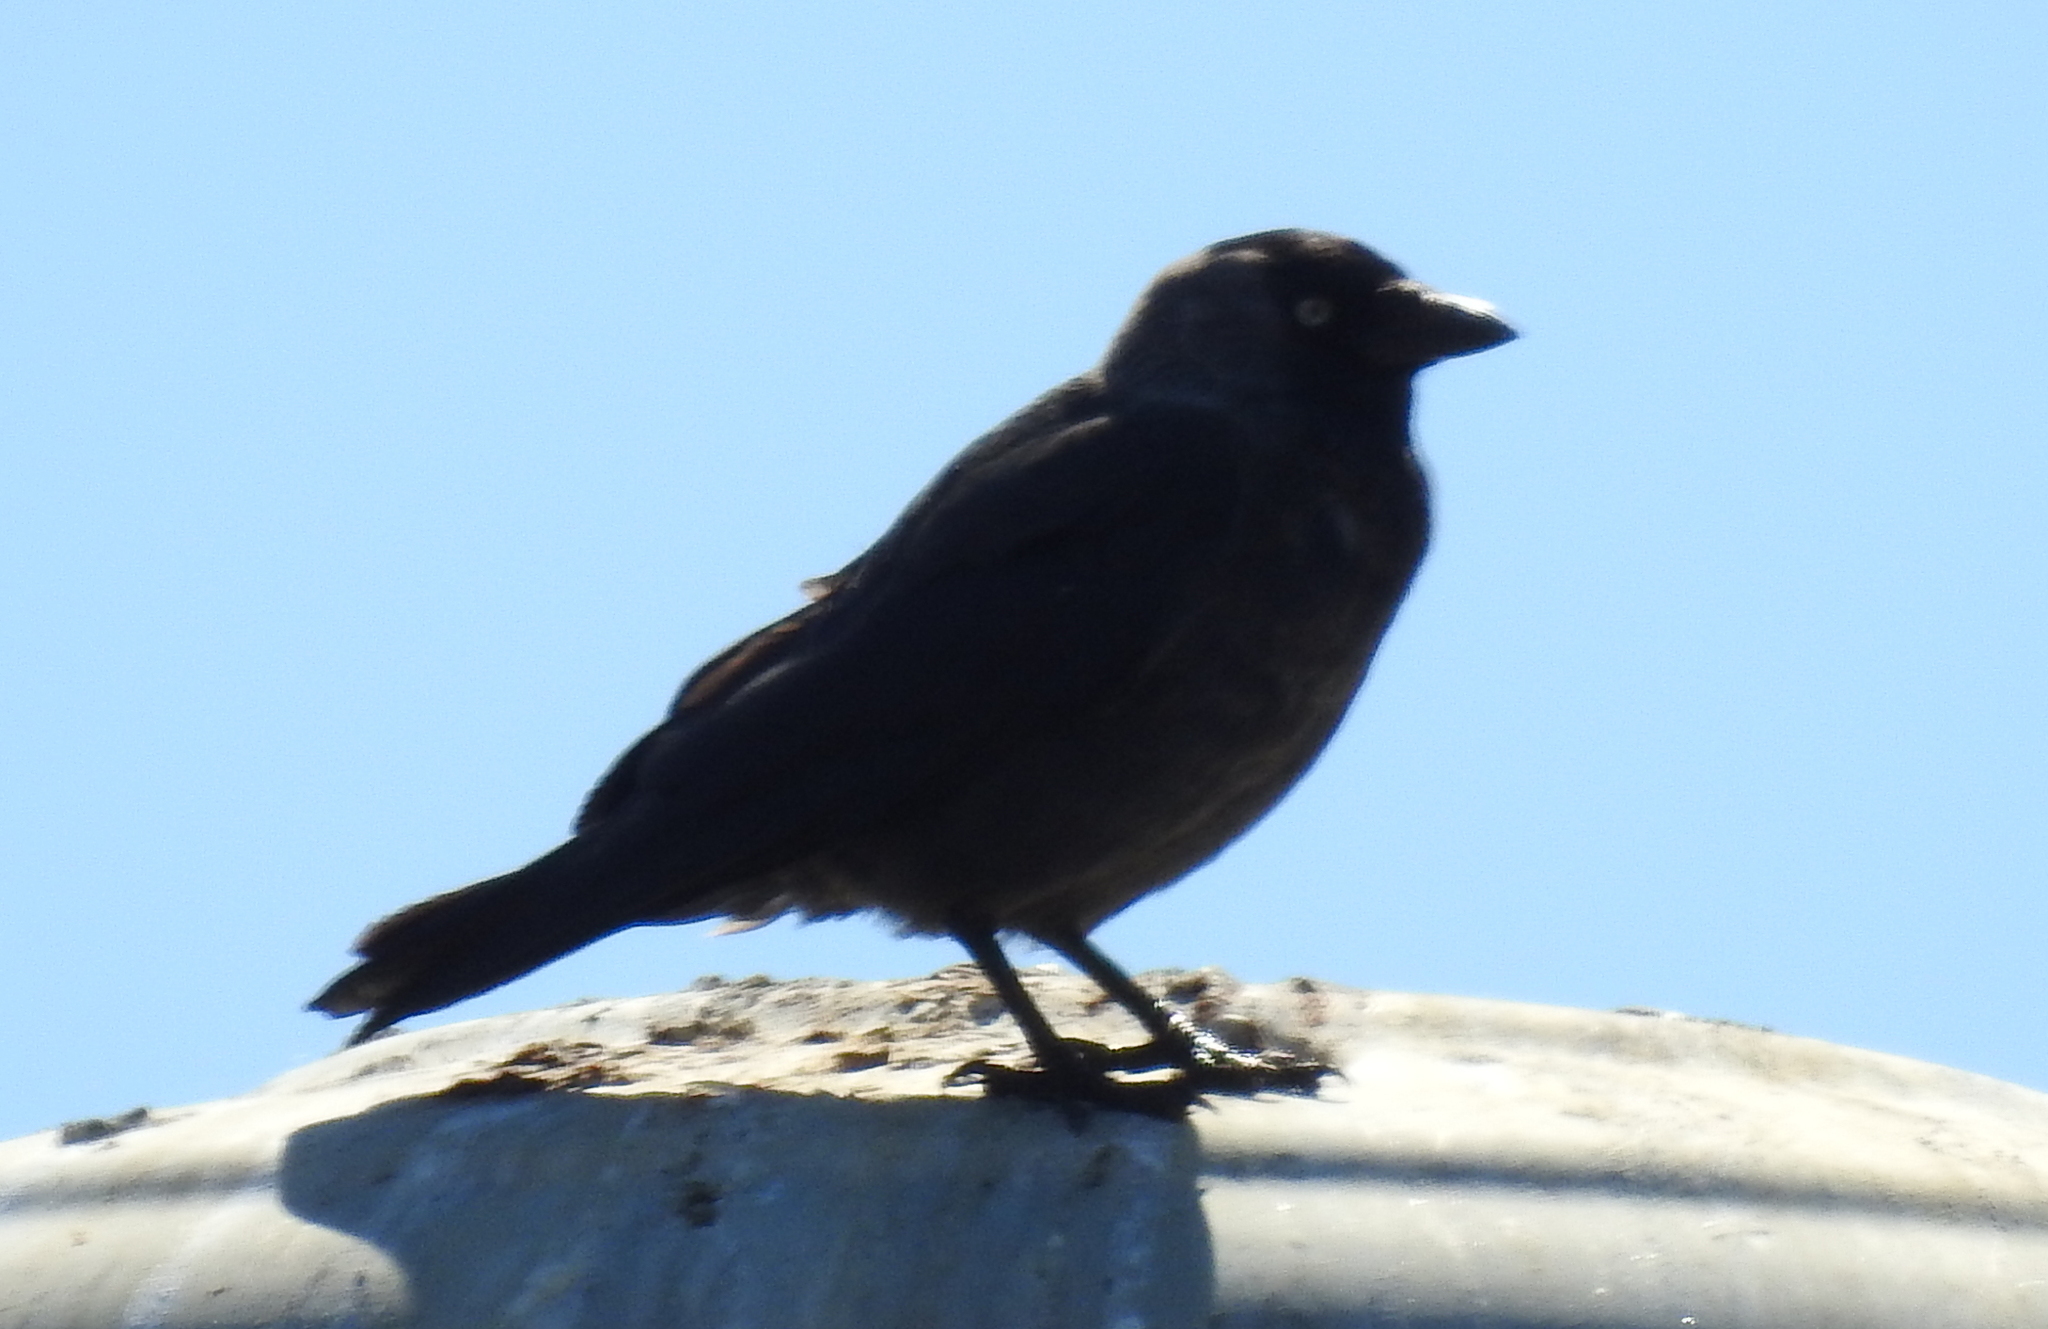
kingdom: Animalia
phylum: Chordata
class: Aves
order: Passeriformes
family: Corvidae
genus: Coloeus
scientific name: Coloeus monedula
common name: Western jackdaw
